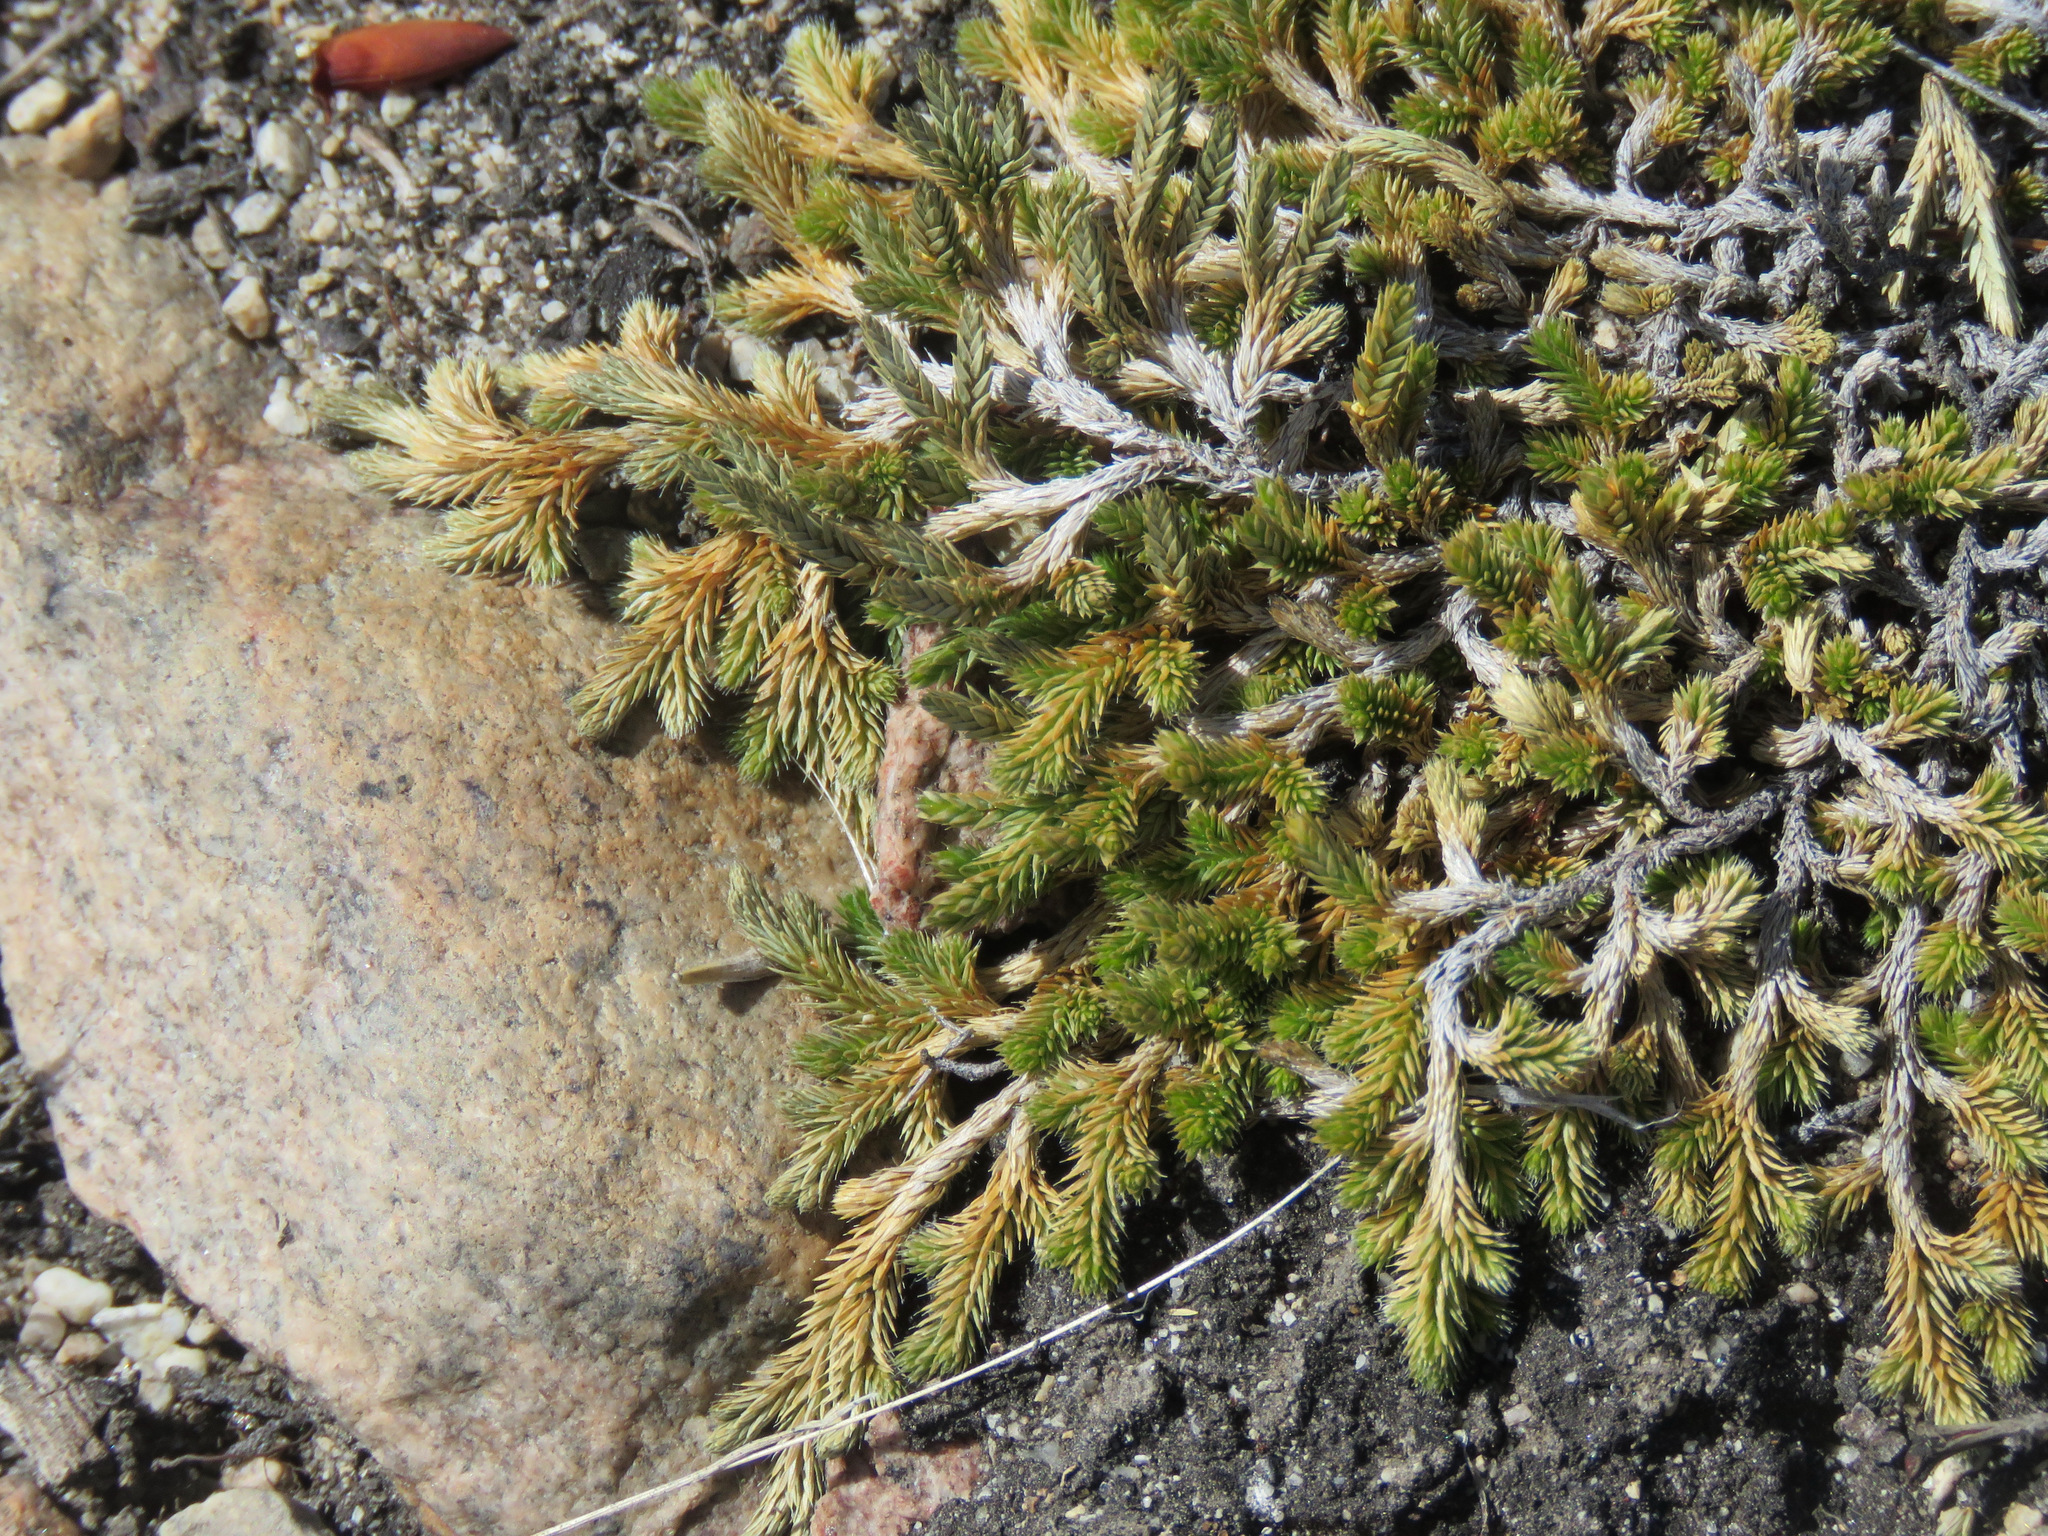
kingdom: Plantae
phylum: Tracheophyta
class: Lycopodiopsida
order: Selaginellales
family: Selaginellaceae
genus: Selaginella
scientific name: Selaginella wallacei
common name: Wallace's selaginella
